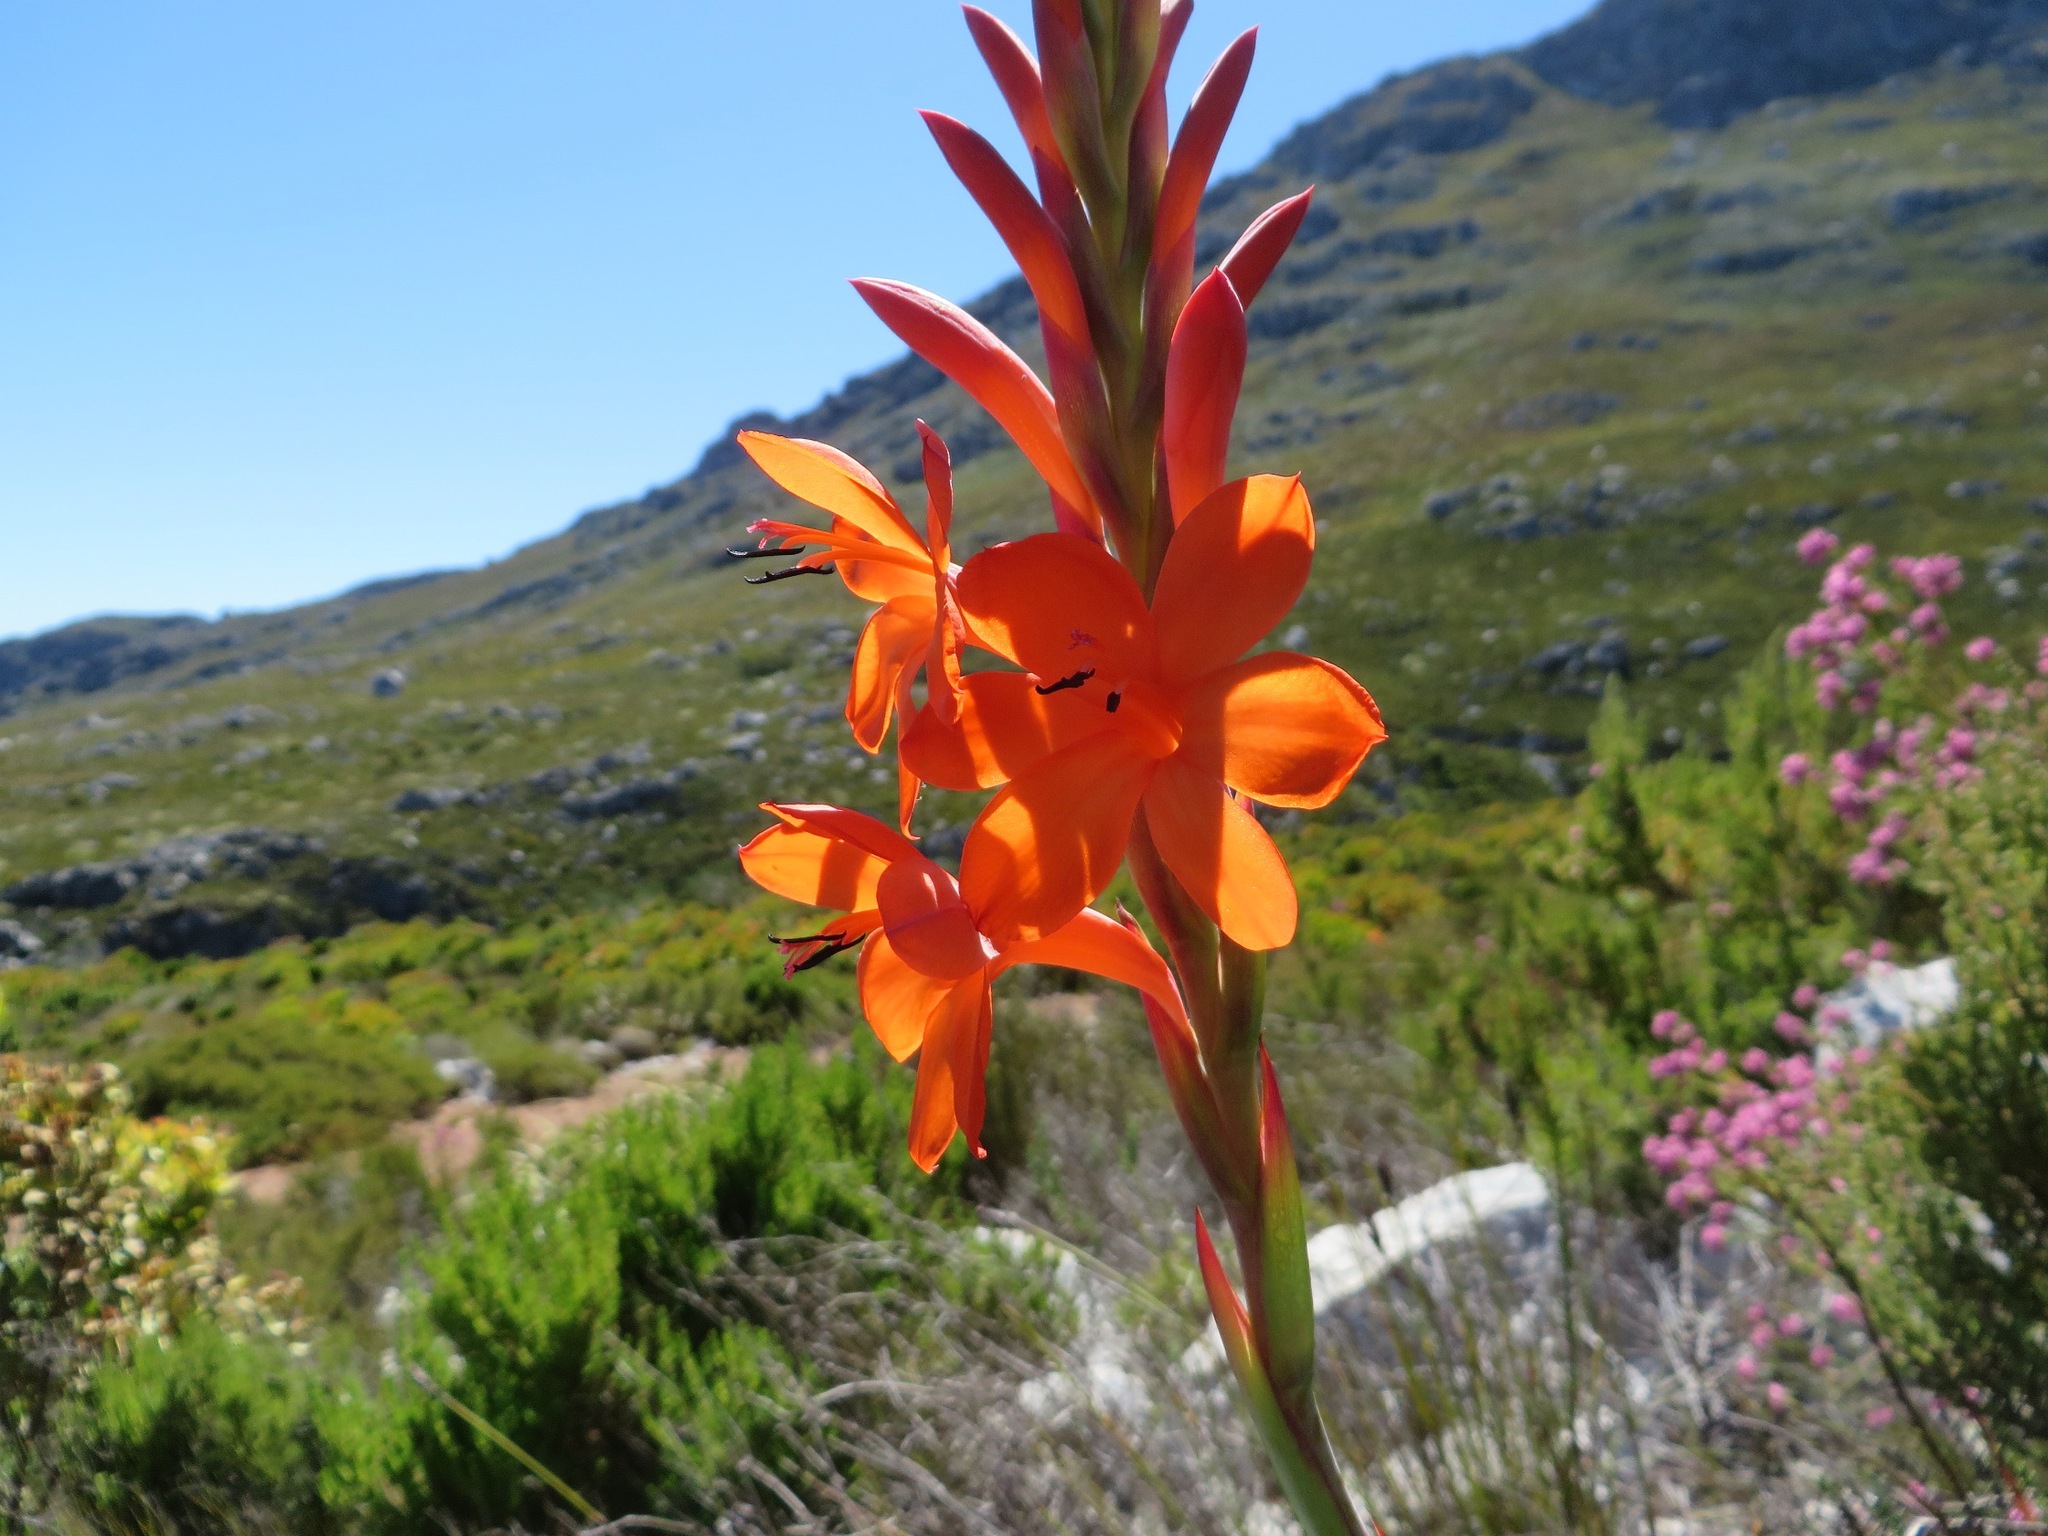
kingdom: Plantae
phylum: Tracheophyta
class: Liliopsida
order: Asparagales
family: Iridaceae
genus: Watsonia
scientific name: Watsonia schlechteri
